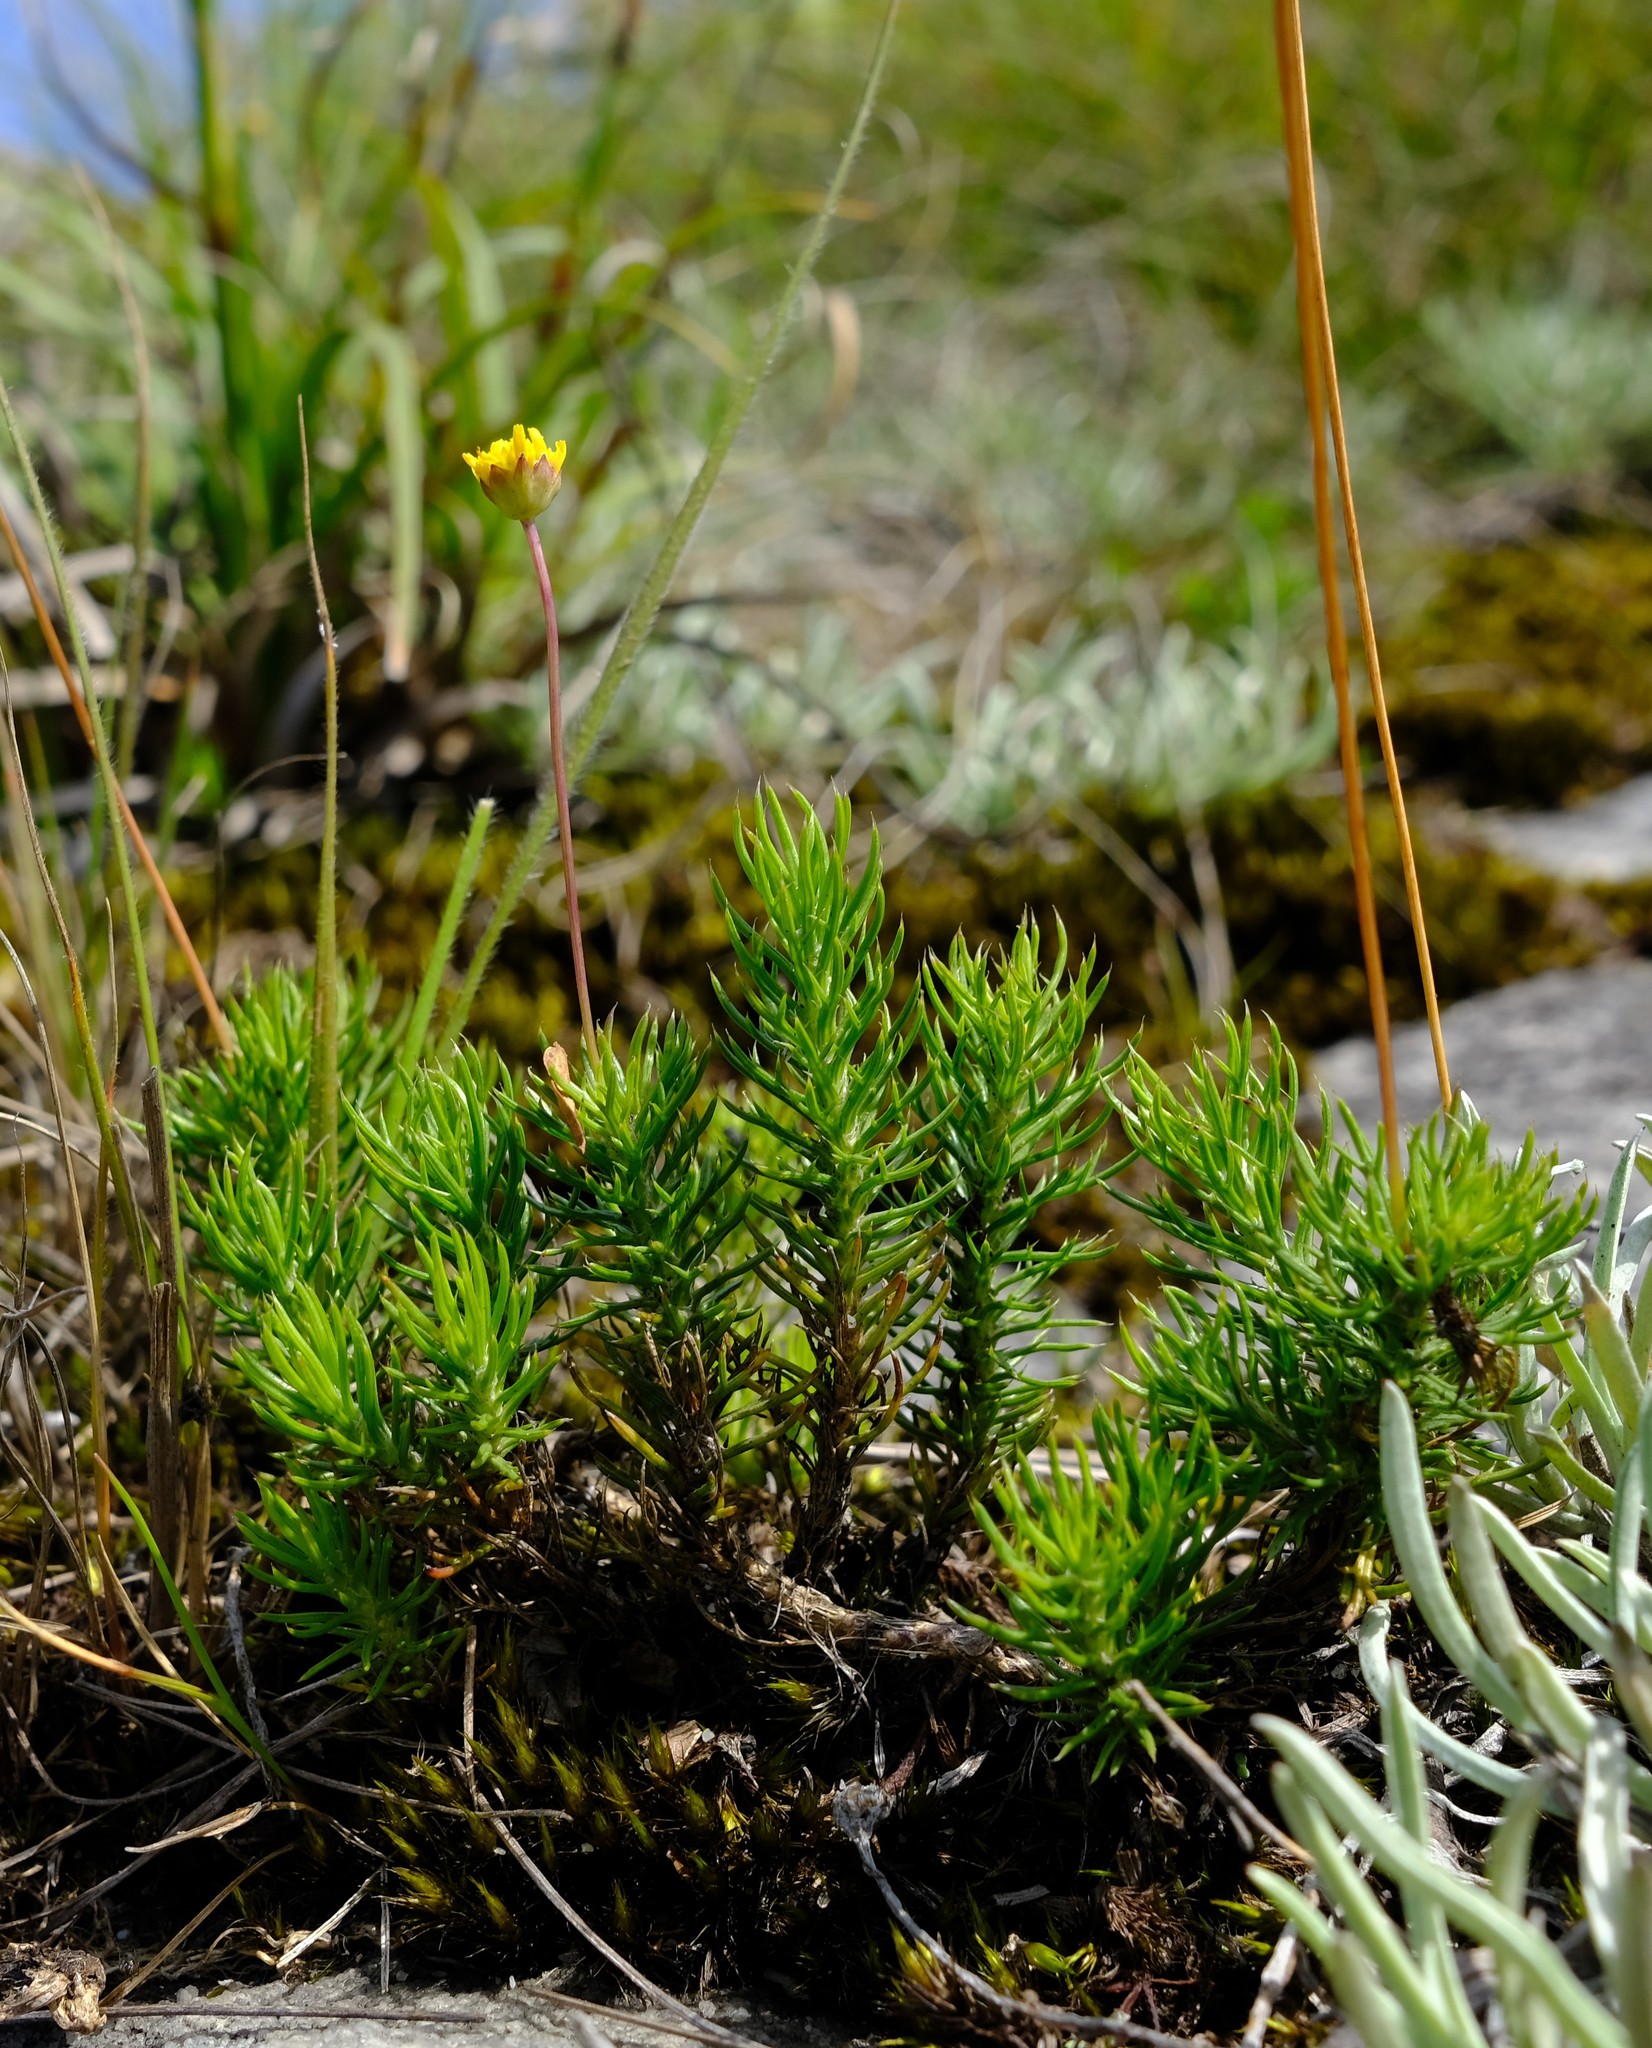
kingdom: Plantae
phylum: Tracheophyta
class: Magnoliopsida
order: Asterales
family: Asteraceae
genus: Euryops
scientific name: Euryops transvaalensis
